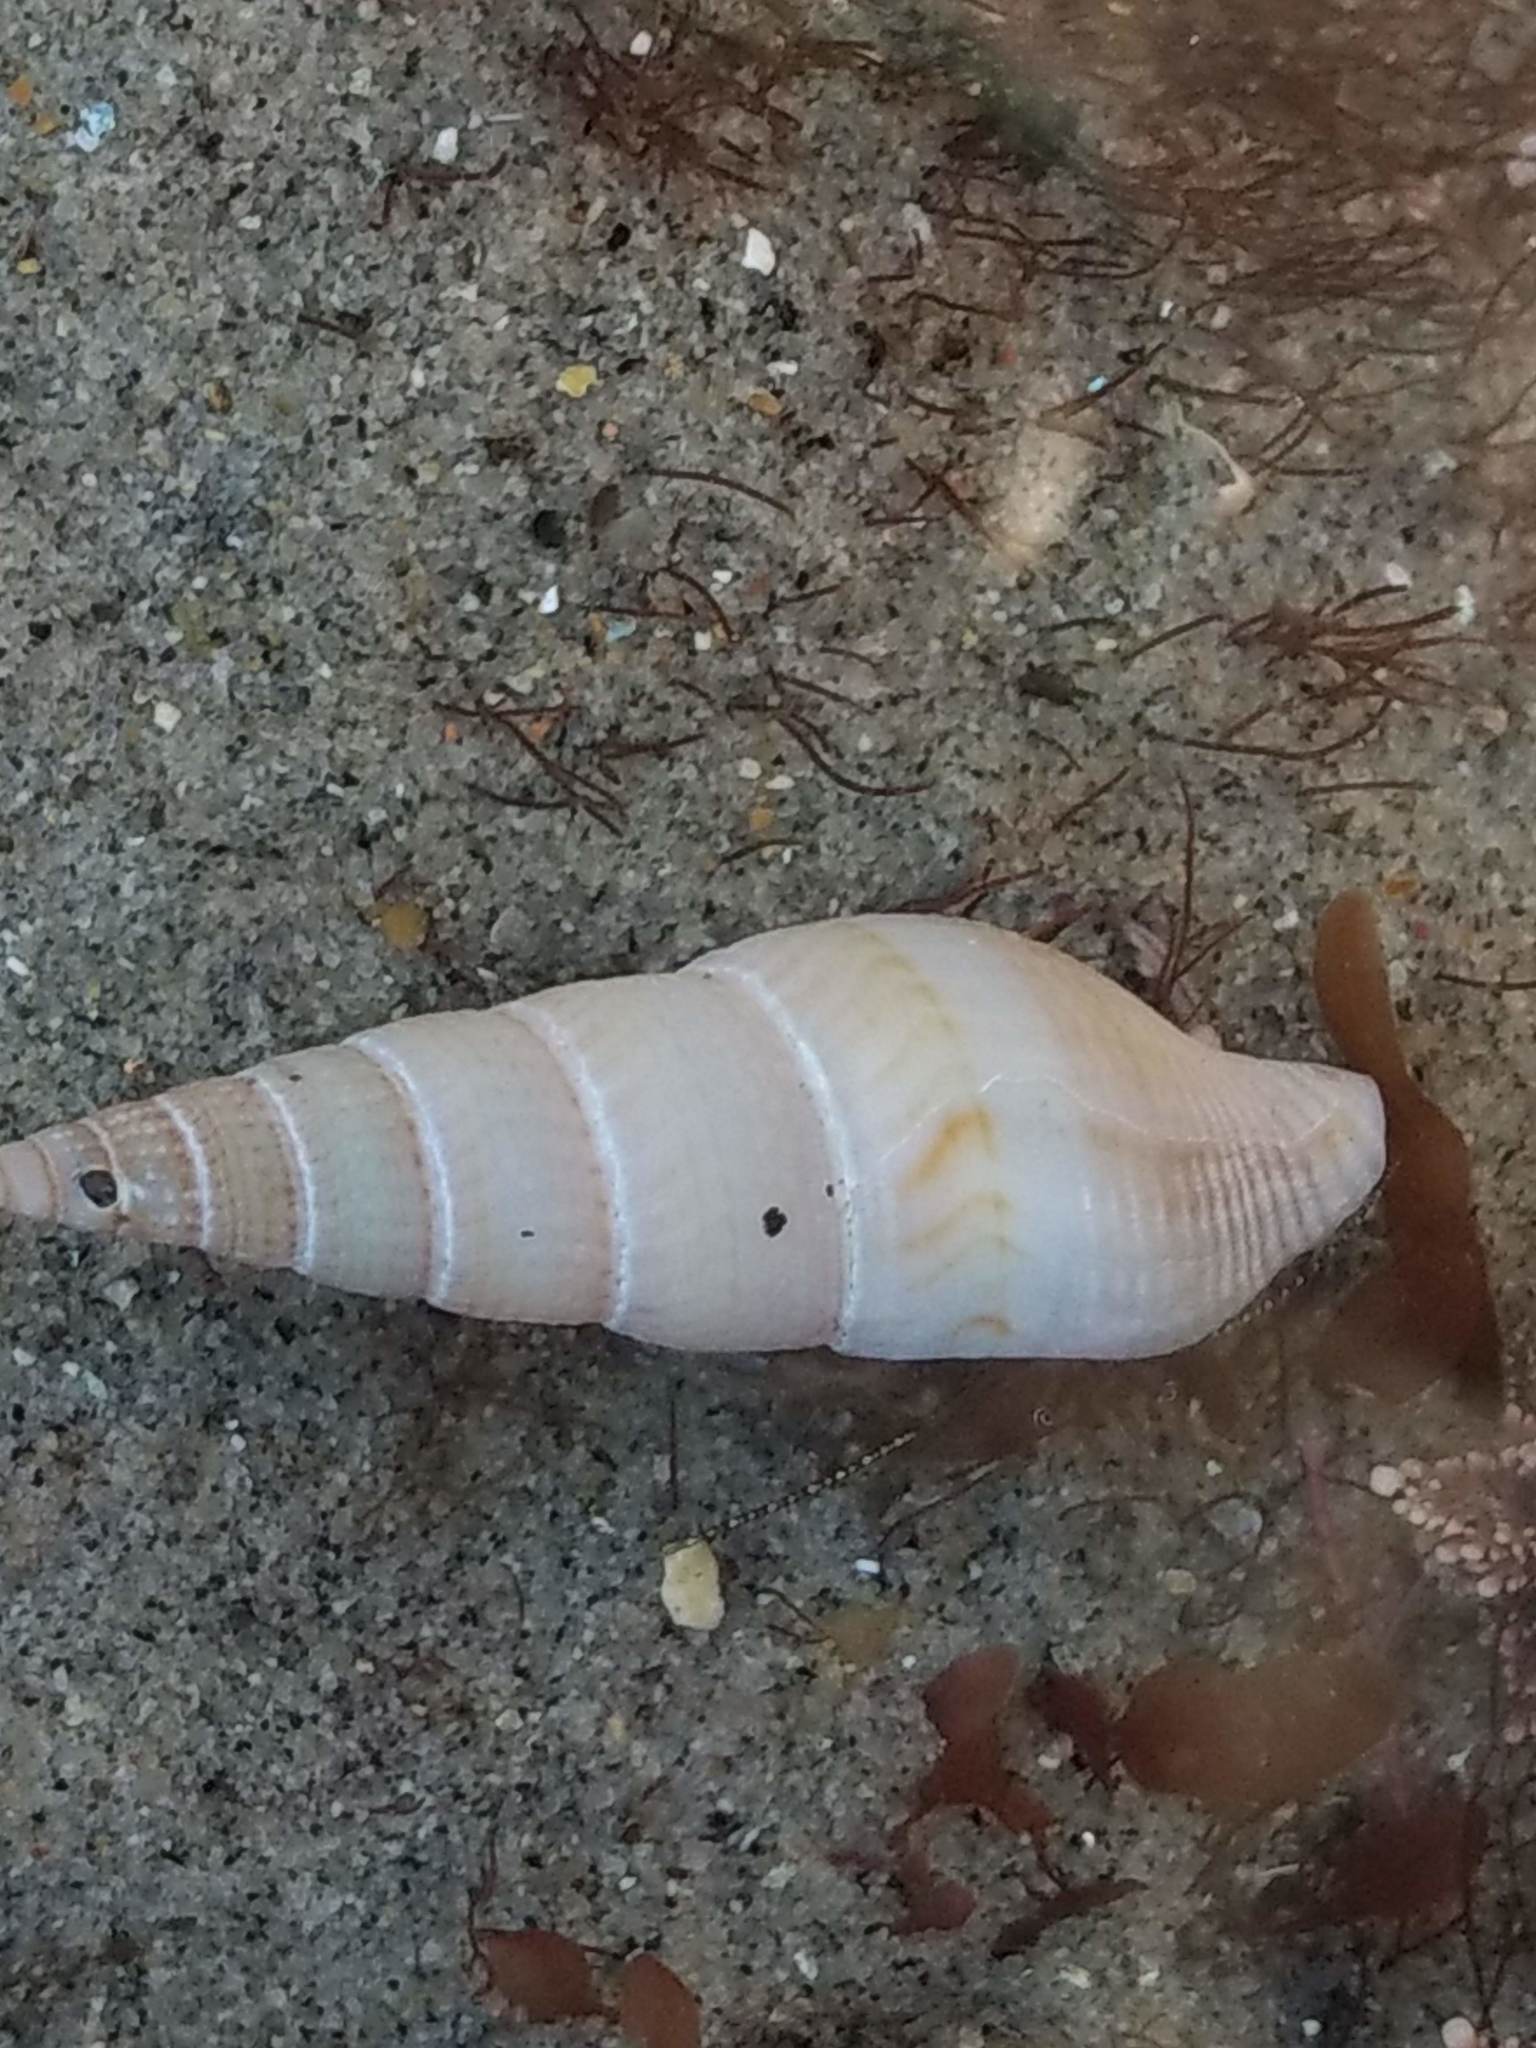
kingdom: Animalia
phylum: Mollusca
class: Gastropoda
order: Neogastropoda
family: Borsoniidae
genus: Ophiodermella
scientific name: Ophiodermella inermis
